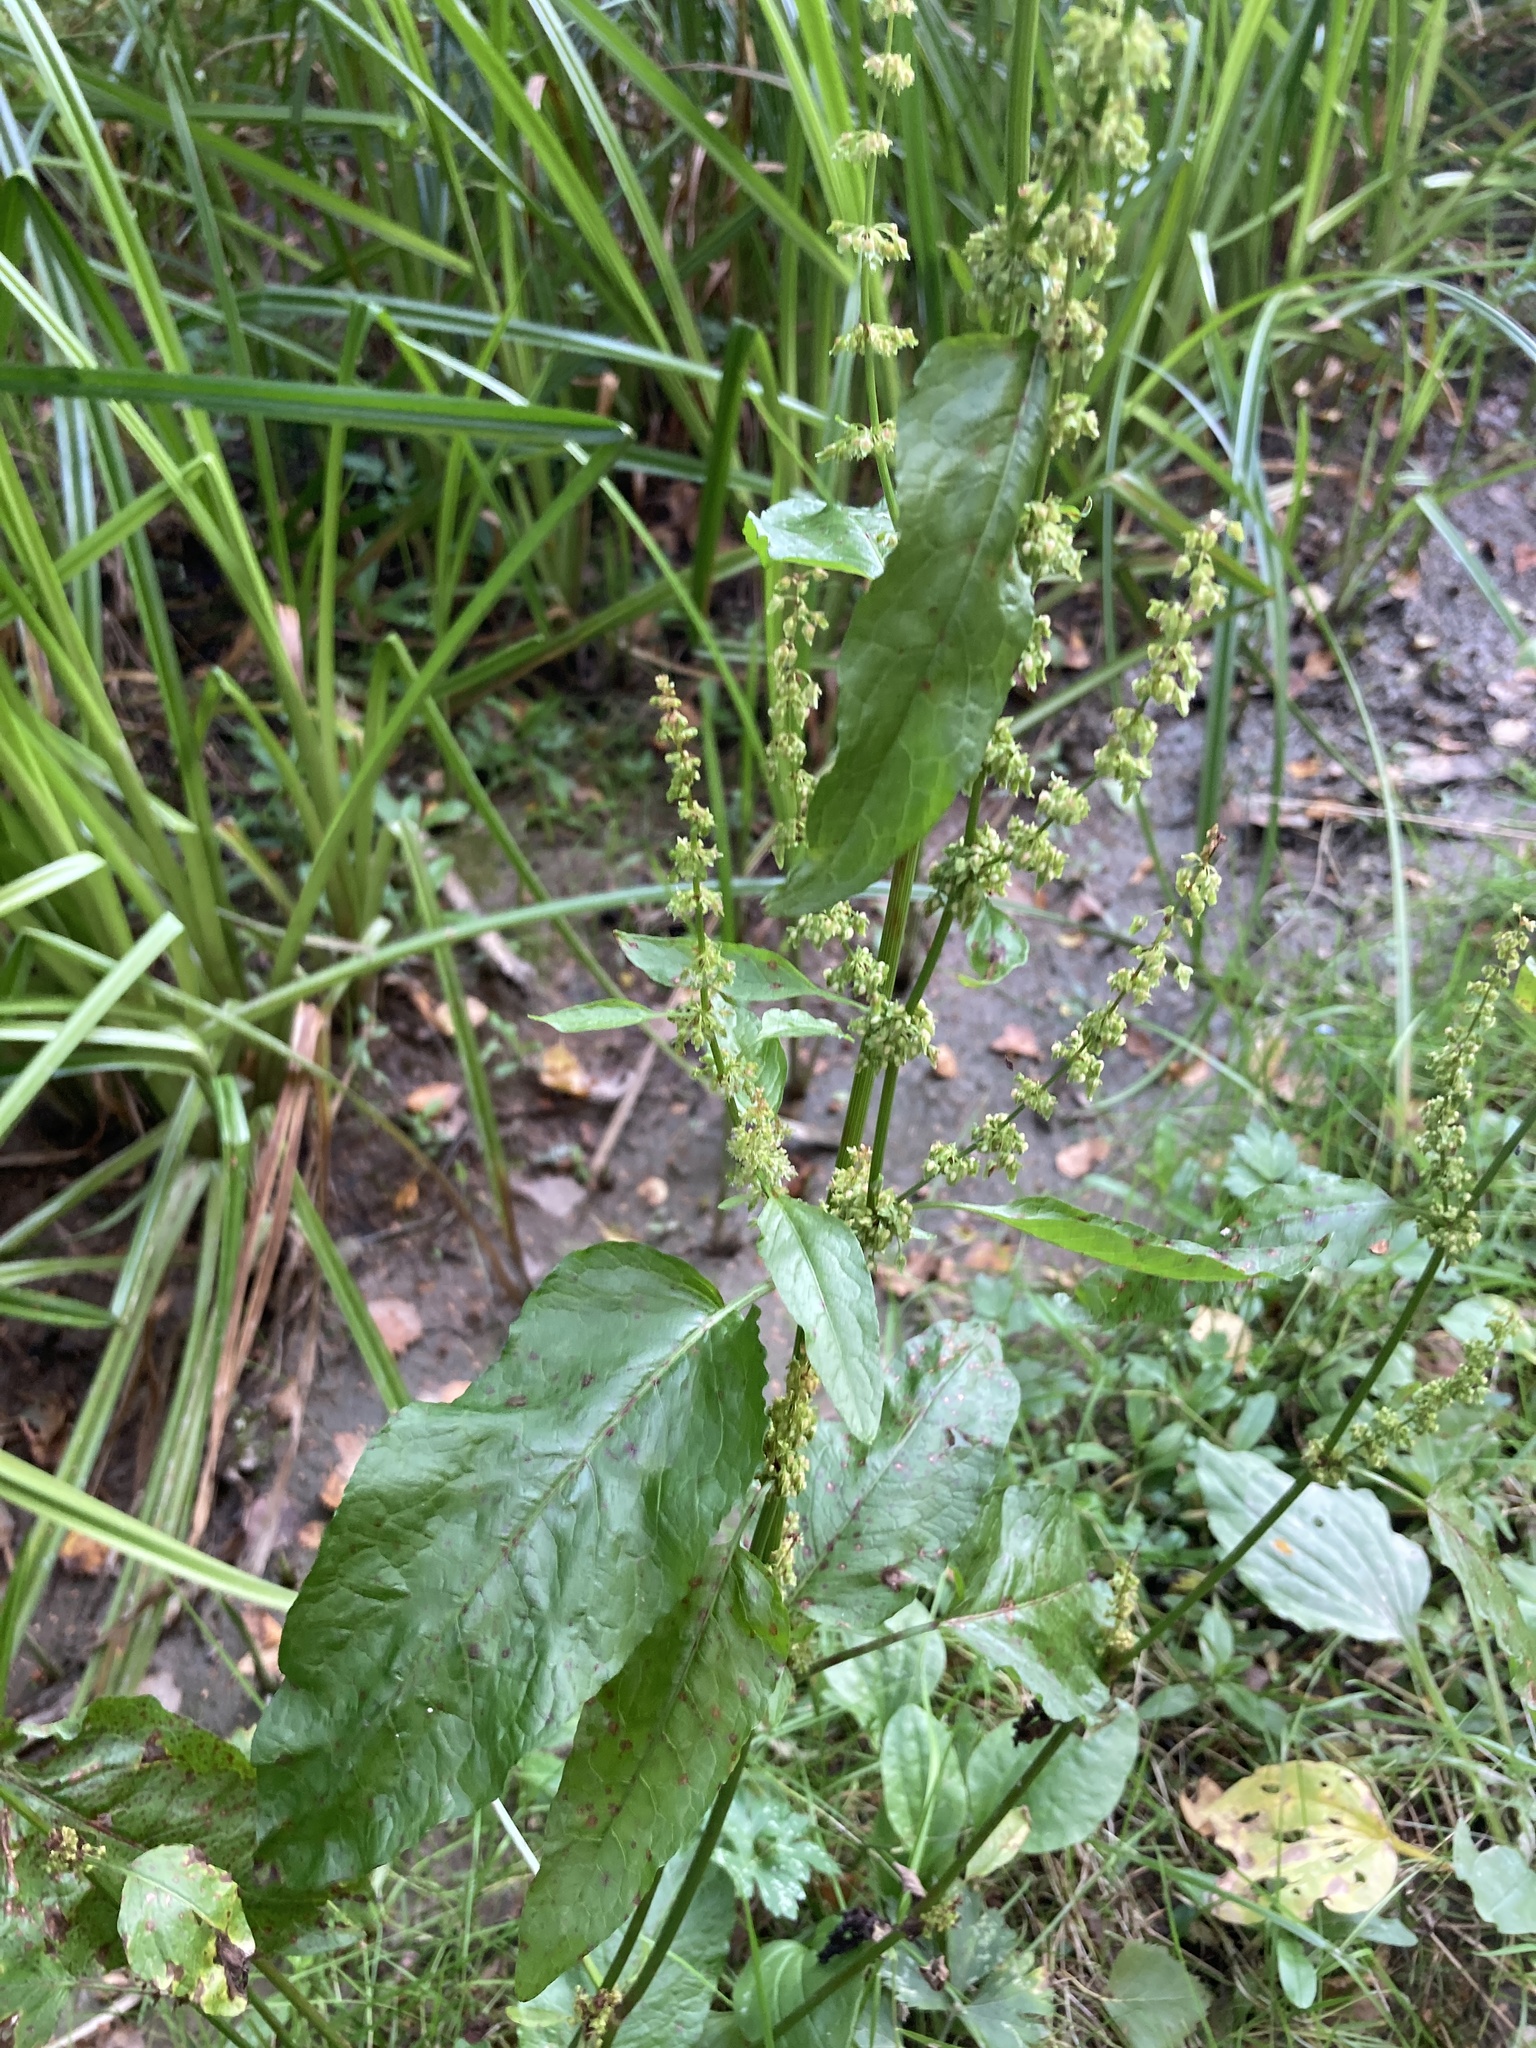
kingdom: Plantae
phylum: Tracheophyta
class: Magnoliopsida
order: Caryophyllales
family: Polygonaceae
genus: Rumex
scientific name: Rumex obtusifolius
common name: Bitter dock
